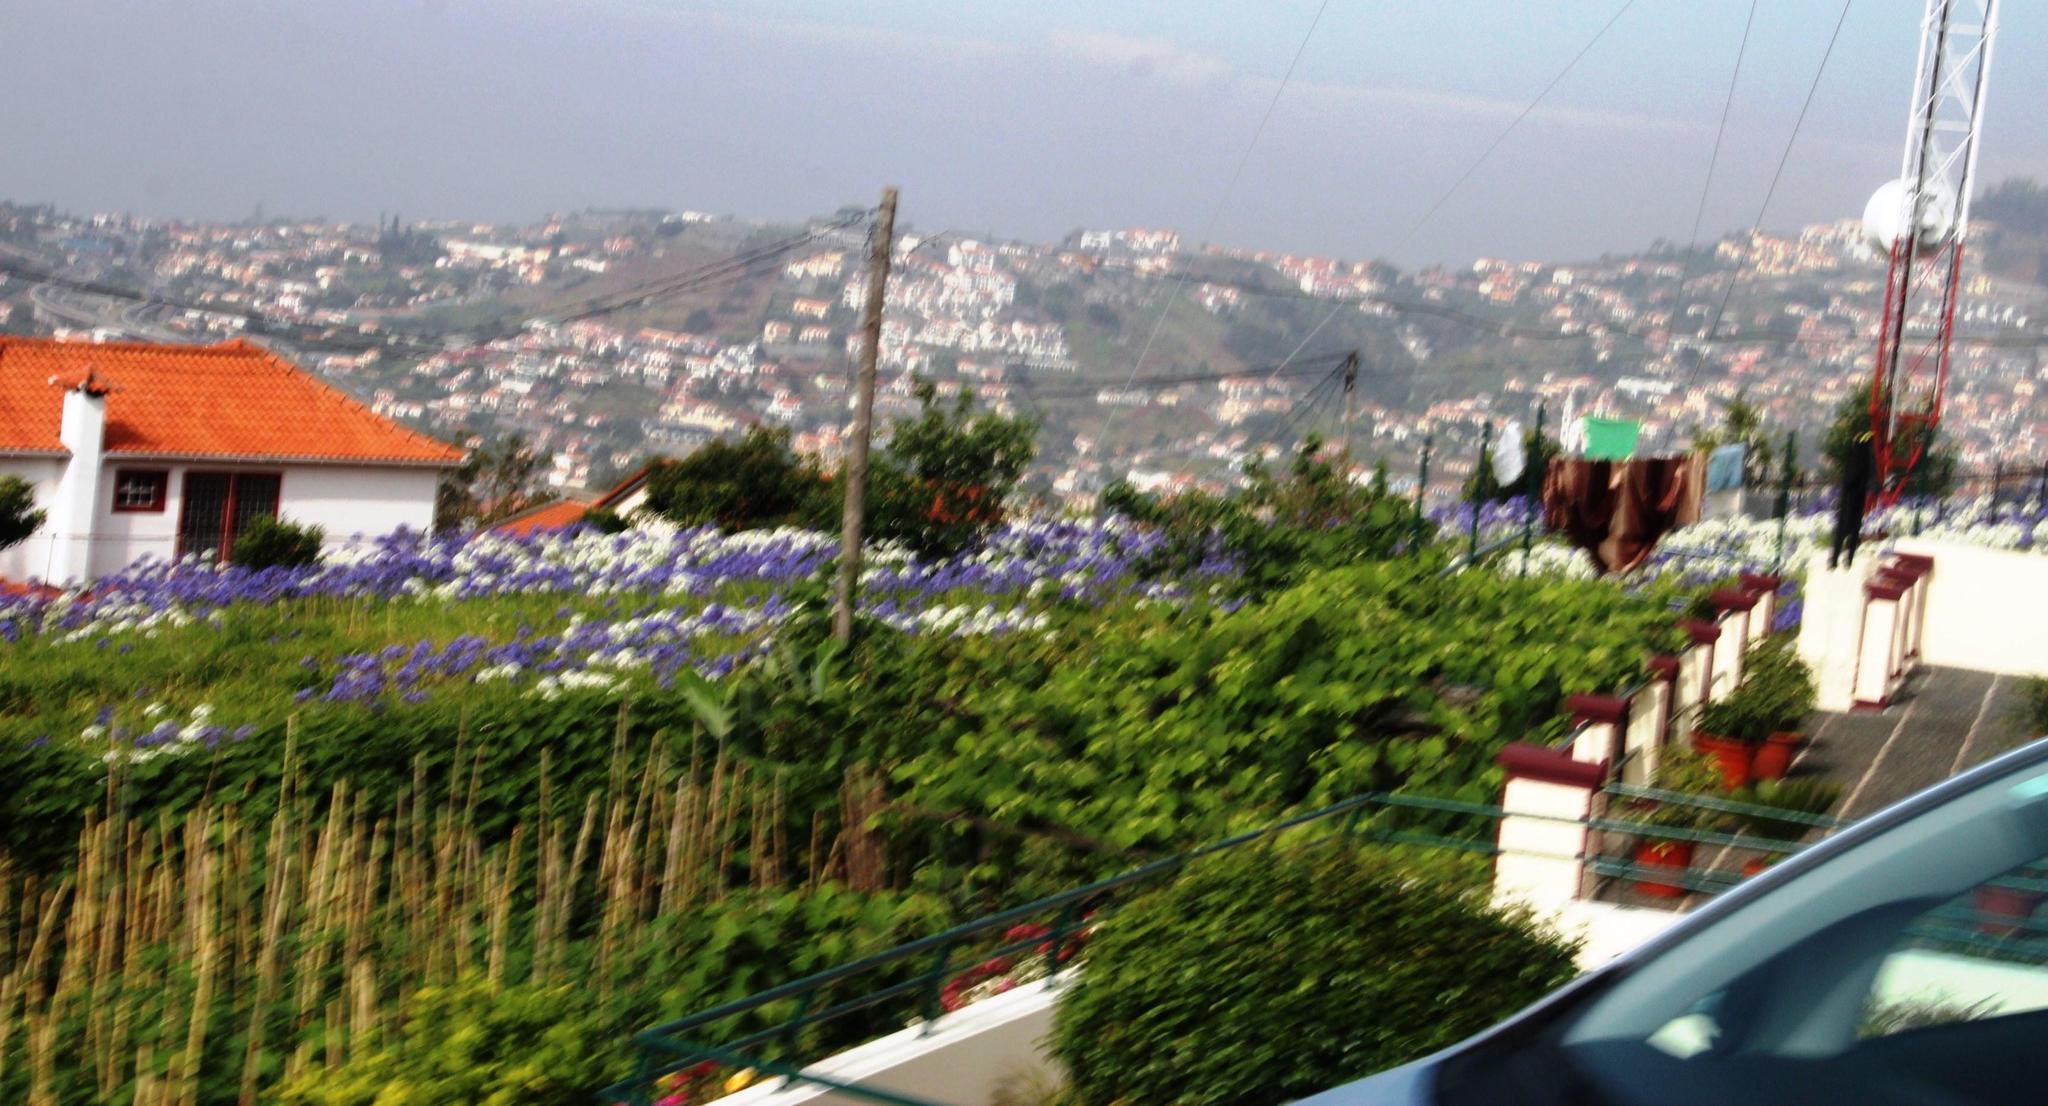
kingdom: Plantae
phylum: Tracheophyta
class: Liliopsida
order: Asparagales
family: Amaryllidaceae
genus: Agapanthus
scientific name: Agapanthus praecox
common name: African-lily
